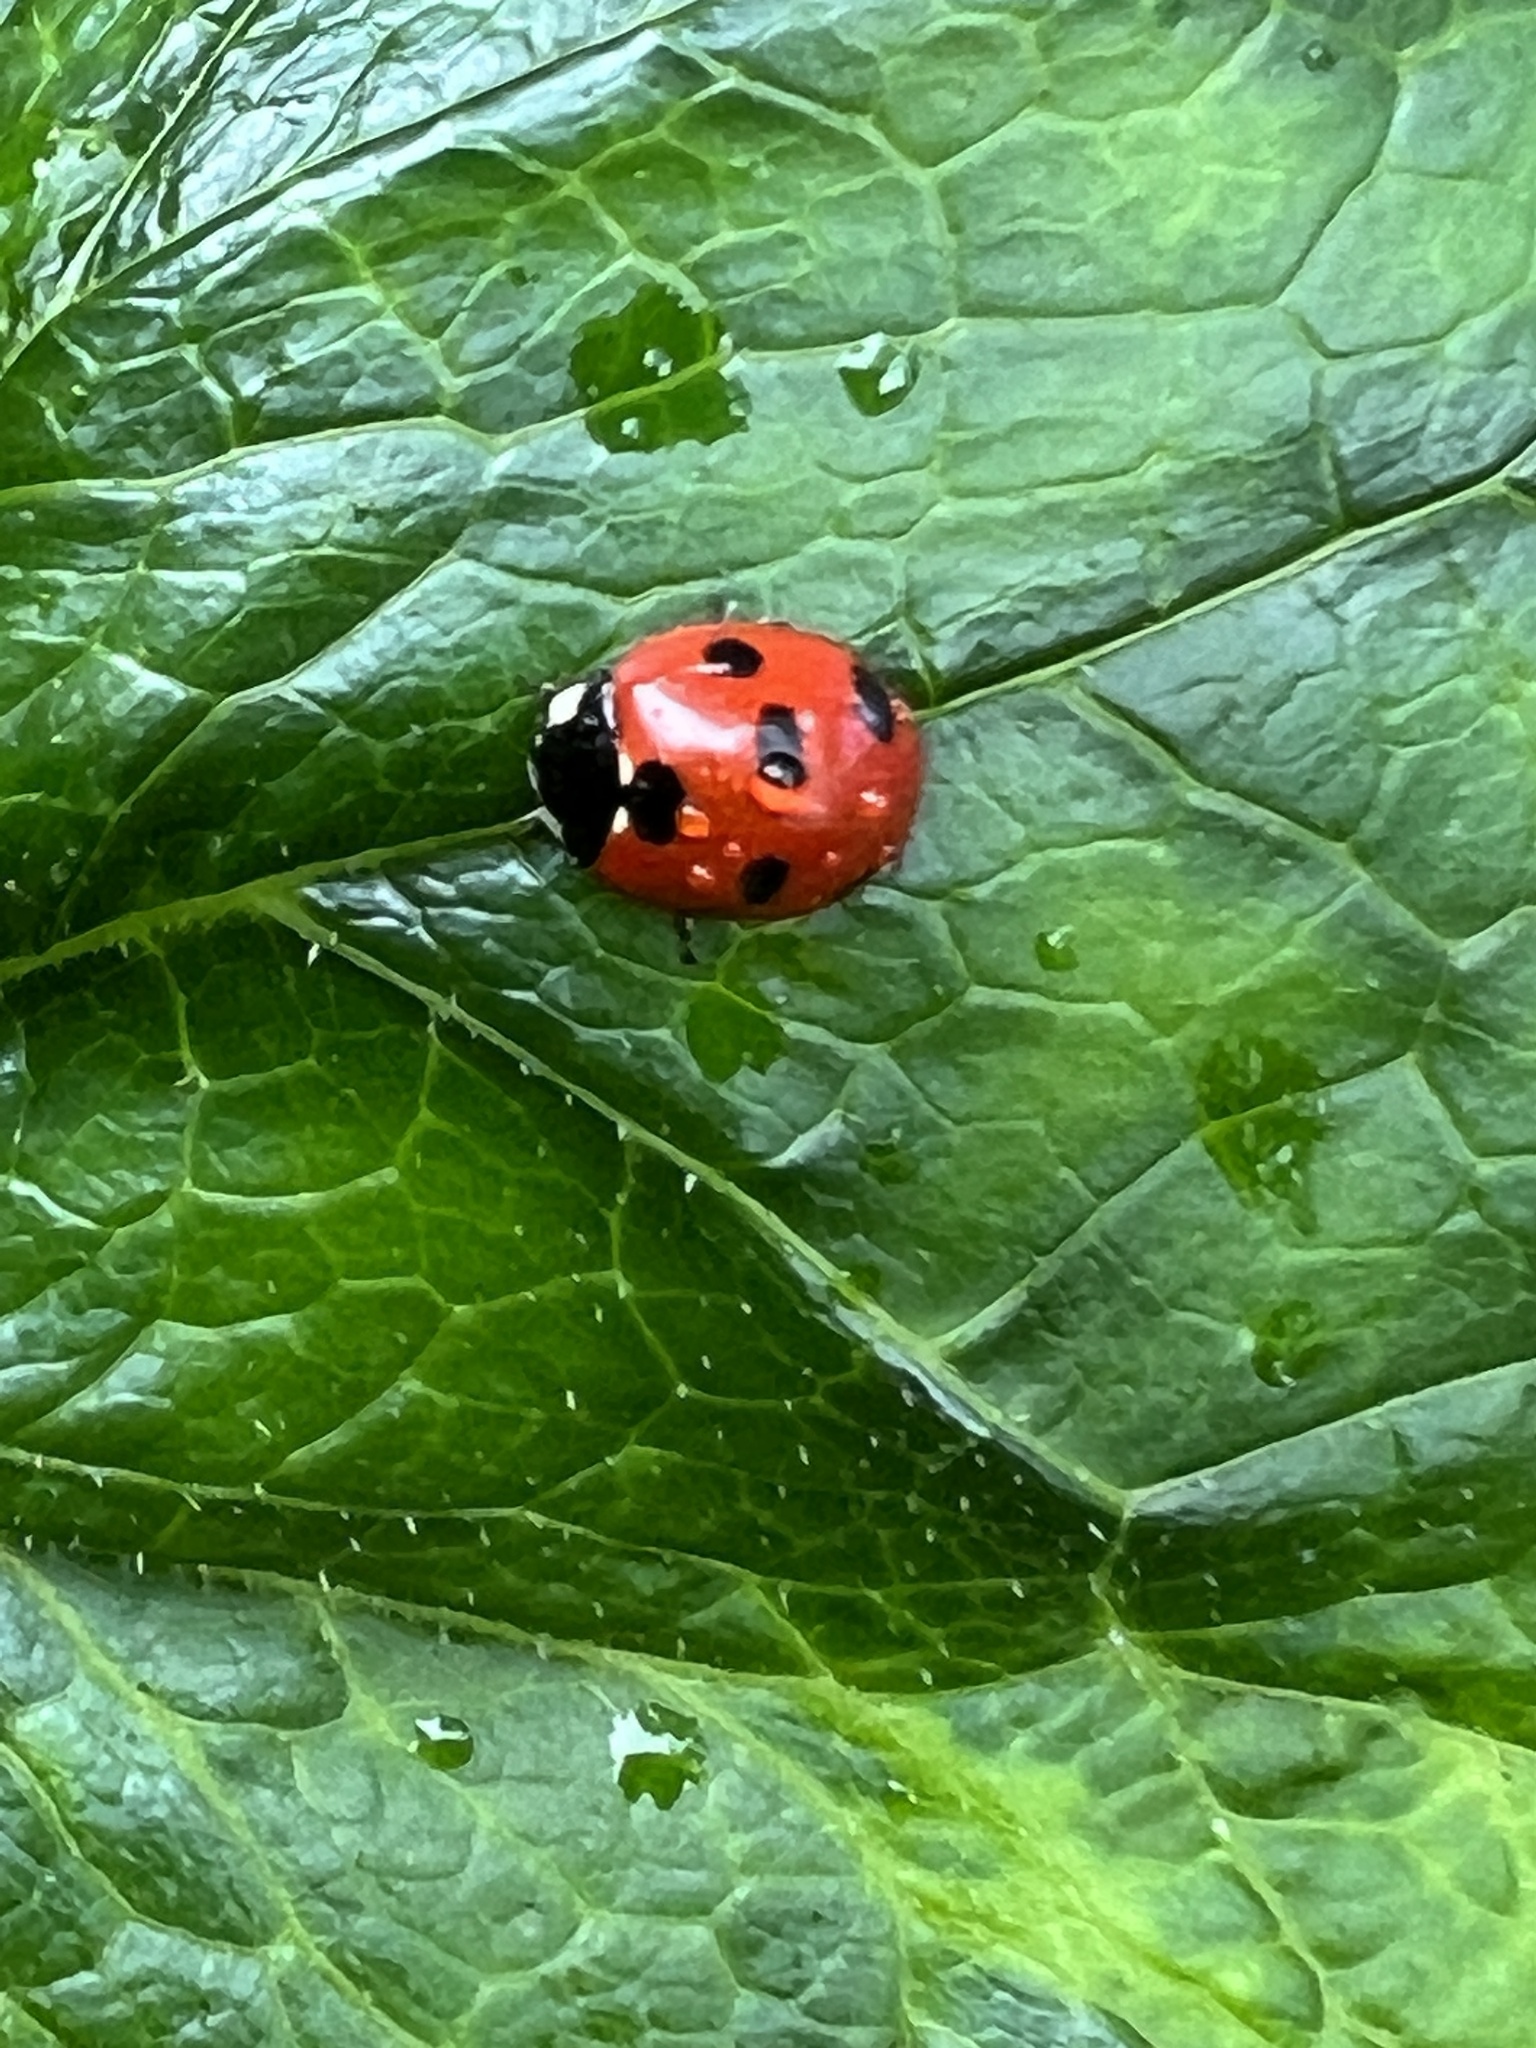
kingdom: Animalia
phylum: Arthropoda
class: Insecta
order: Coleoptera
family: Coccinellidae
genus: Coccinella
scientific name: Coccinella algerica
